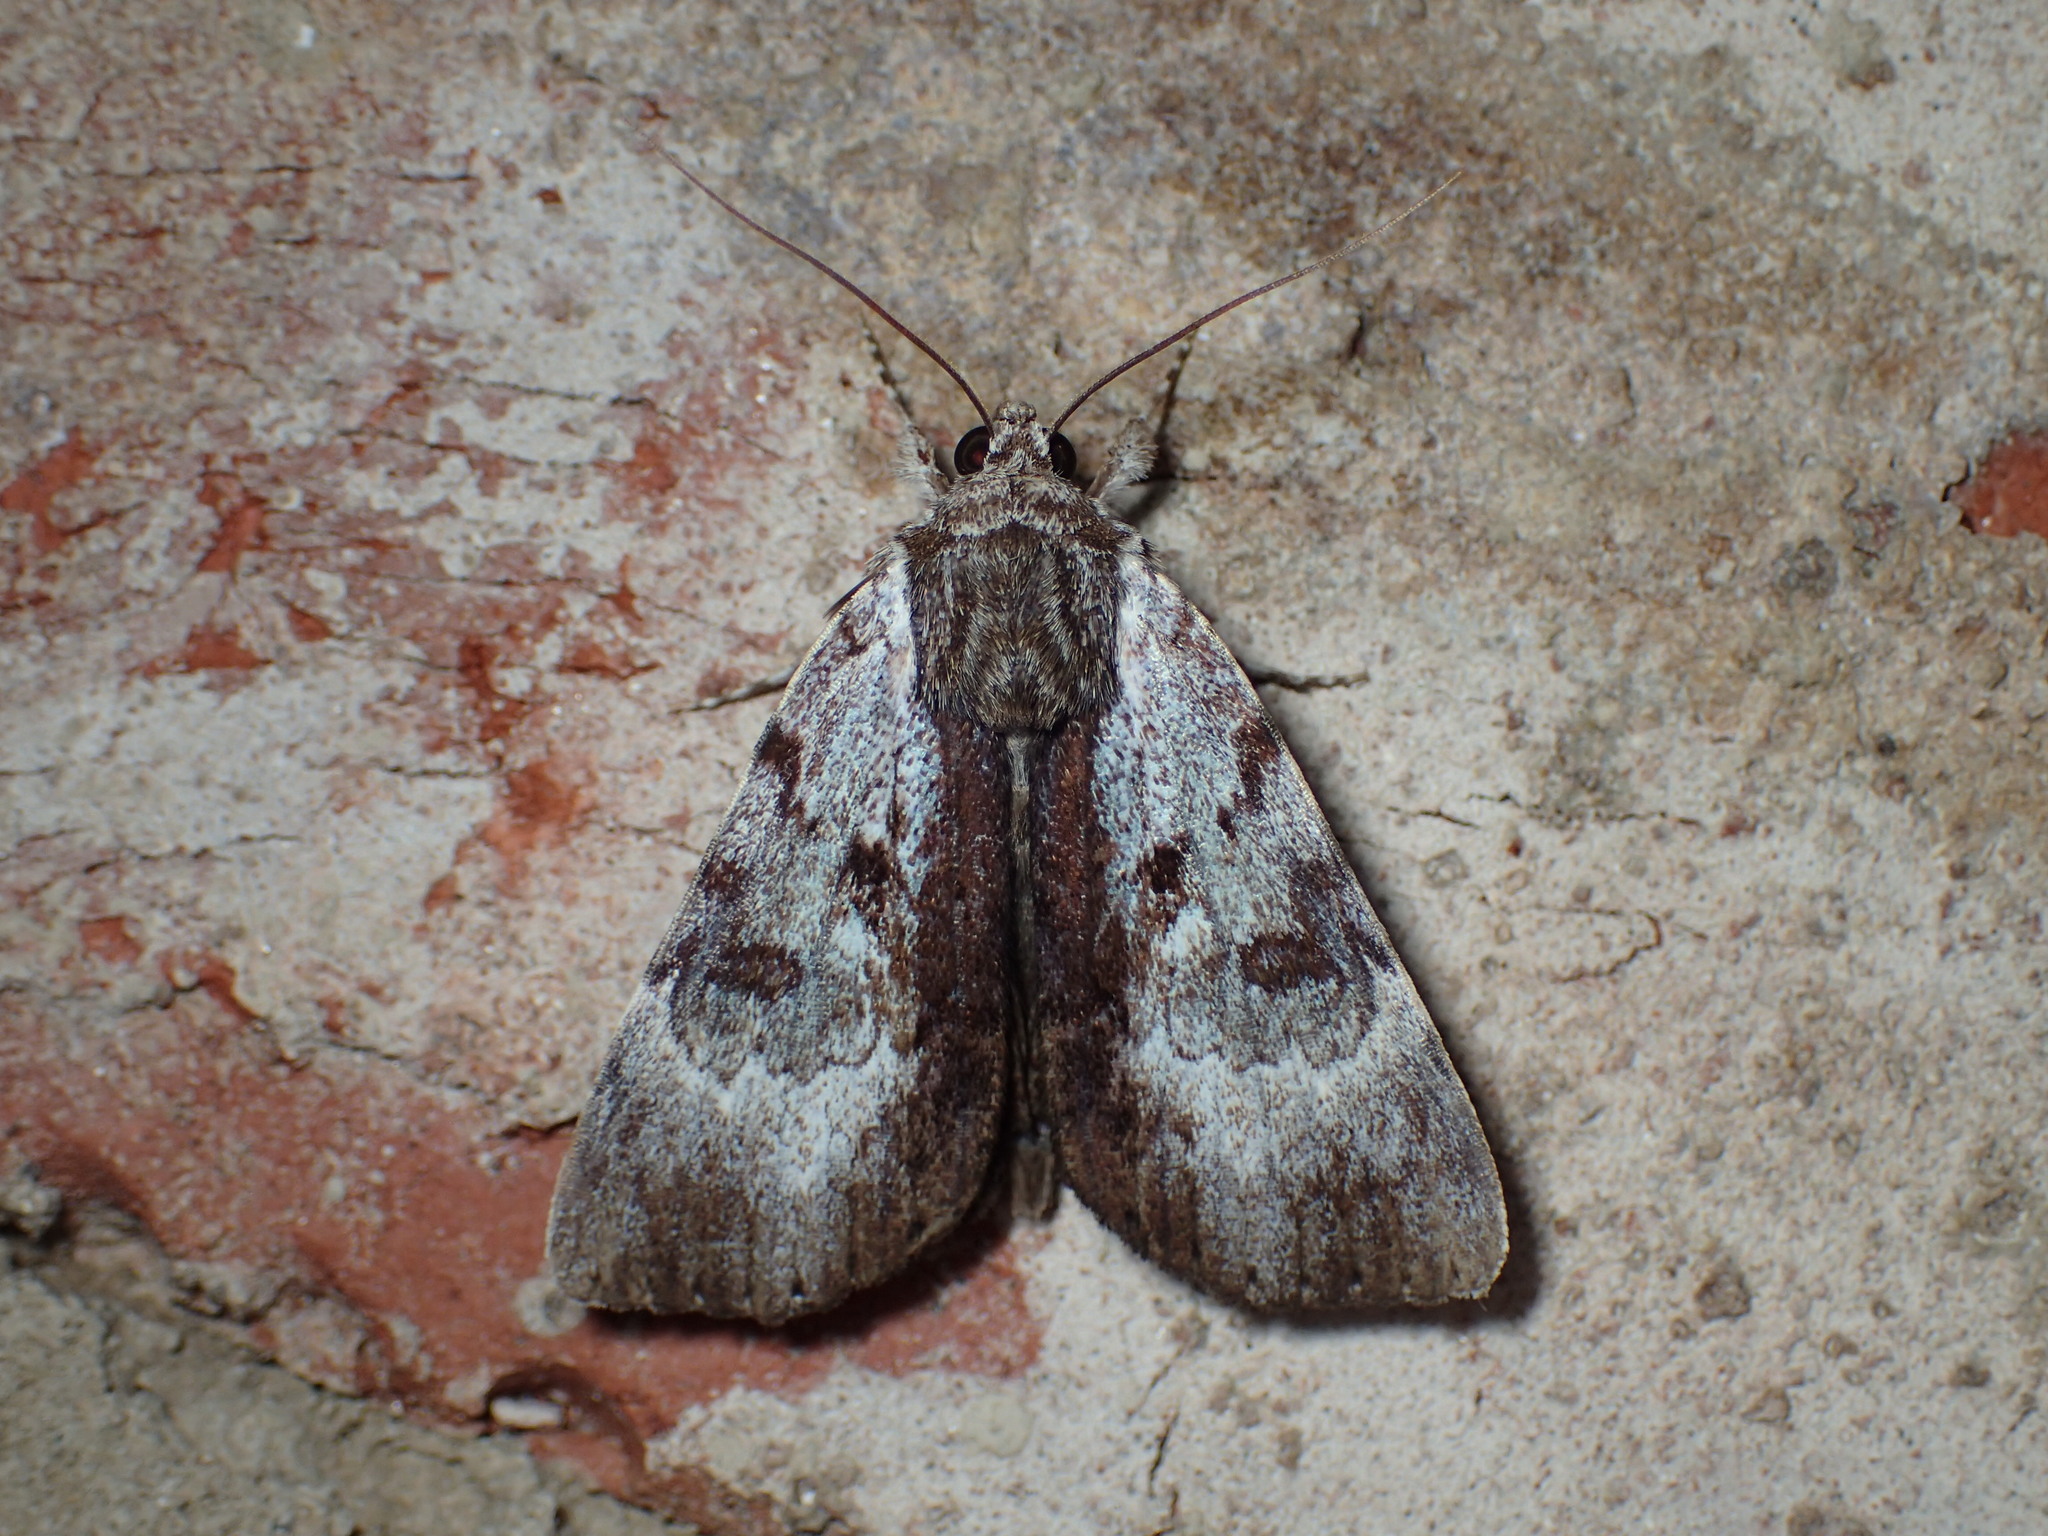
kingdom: Animalia
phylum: Arthropoda
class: Insecta
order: Lepidoptera
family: Erebidae
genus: Catocala
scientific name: Catocala andromedae
